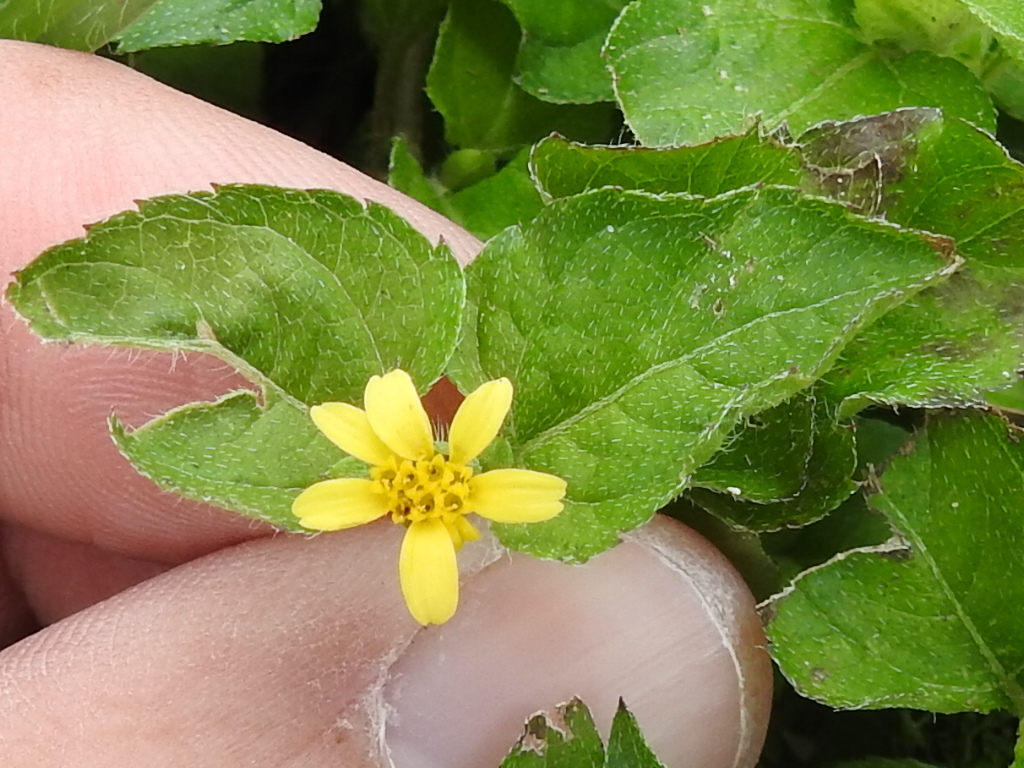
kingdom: Plantae
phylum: Tracheophyta
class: Magnoliopsida
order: Asterales
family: Asteraceae
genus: Calyptocarpus
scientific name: Calyptocarpus vialis
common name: Straggler daisy
